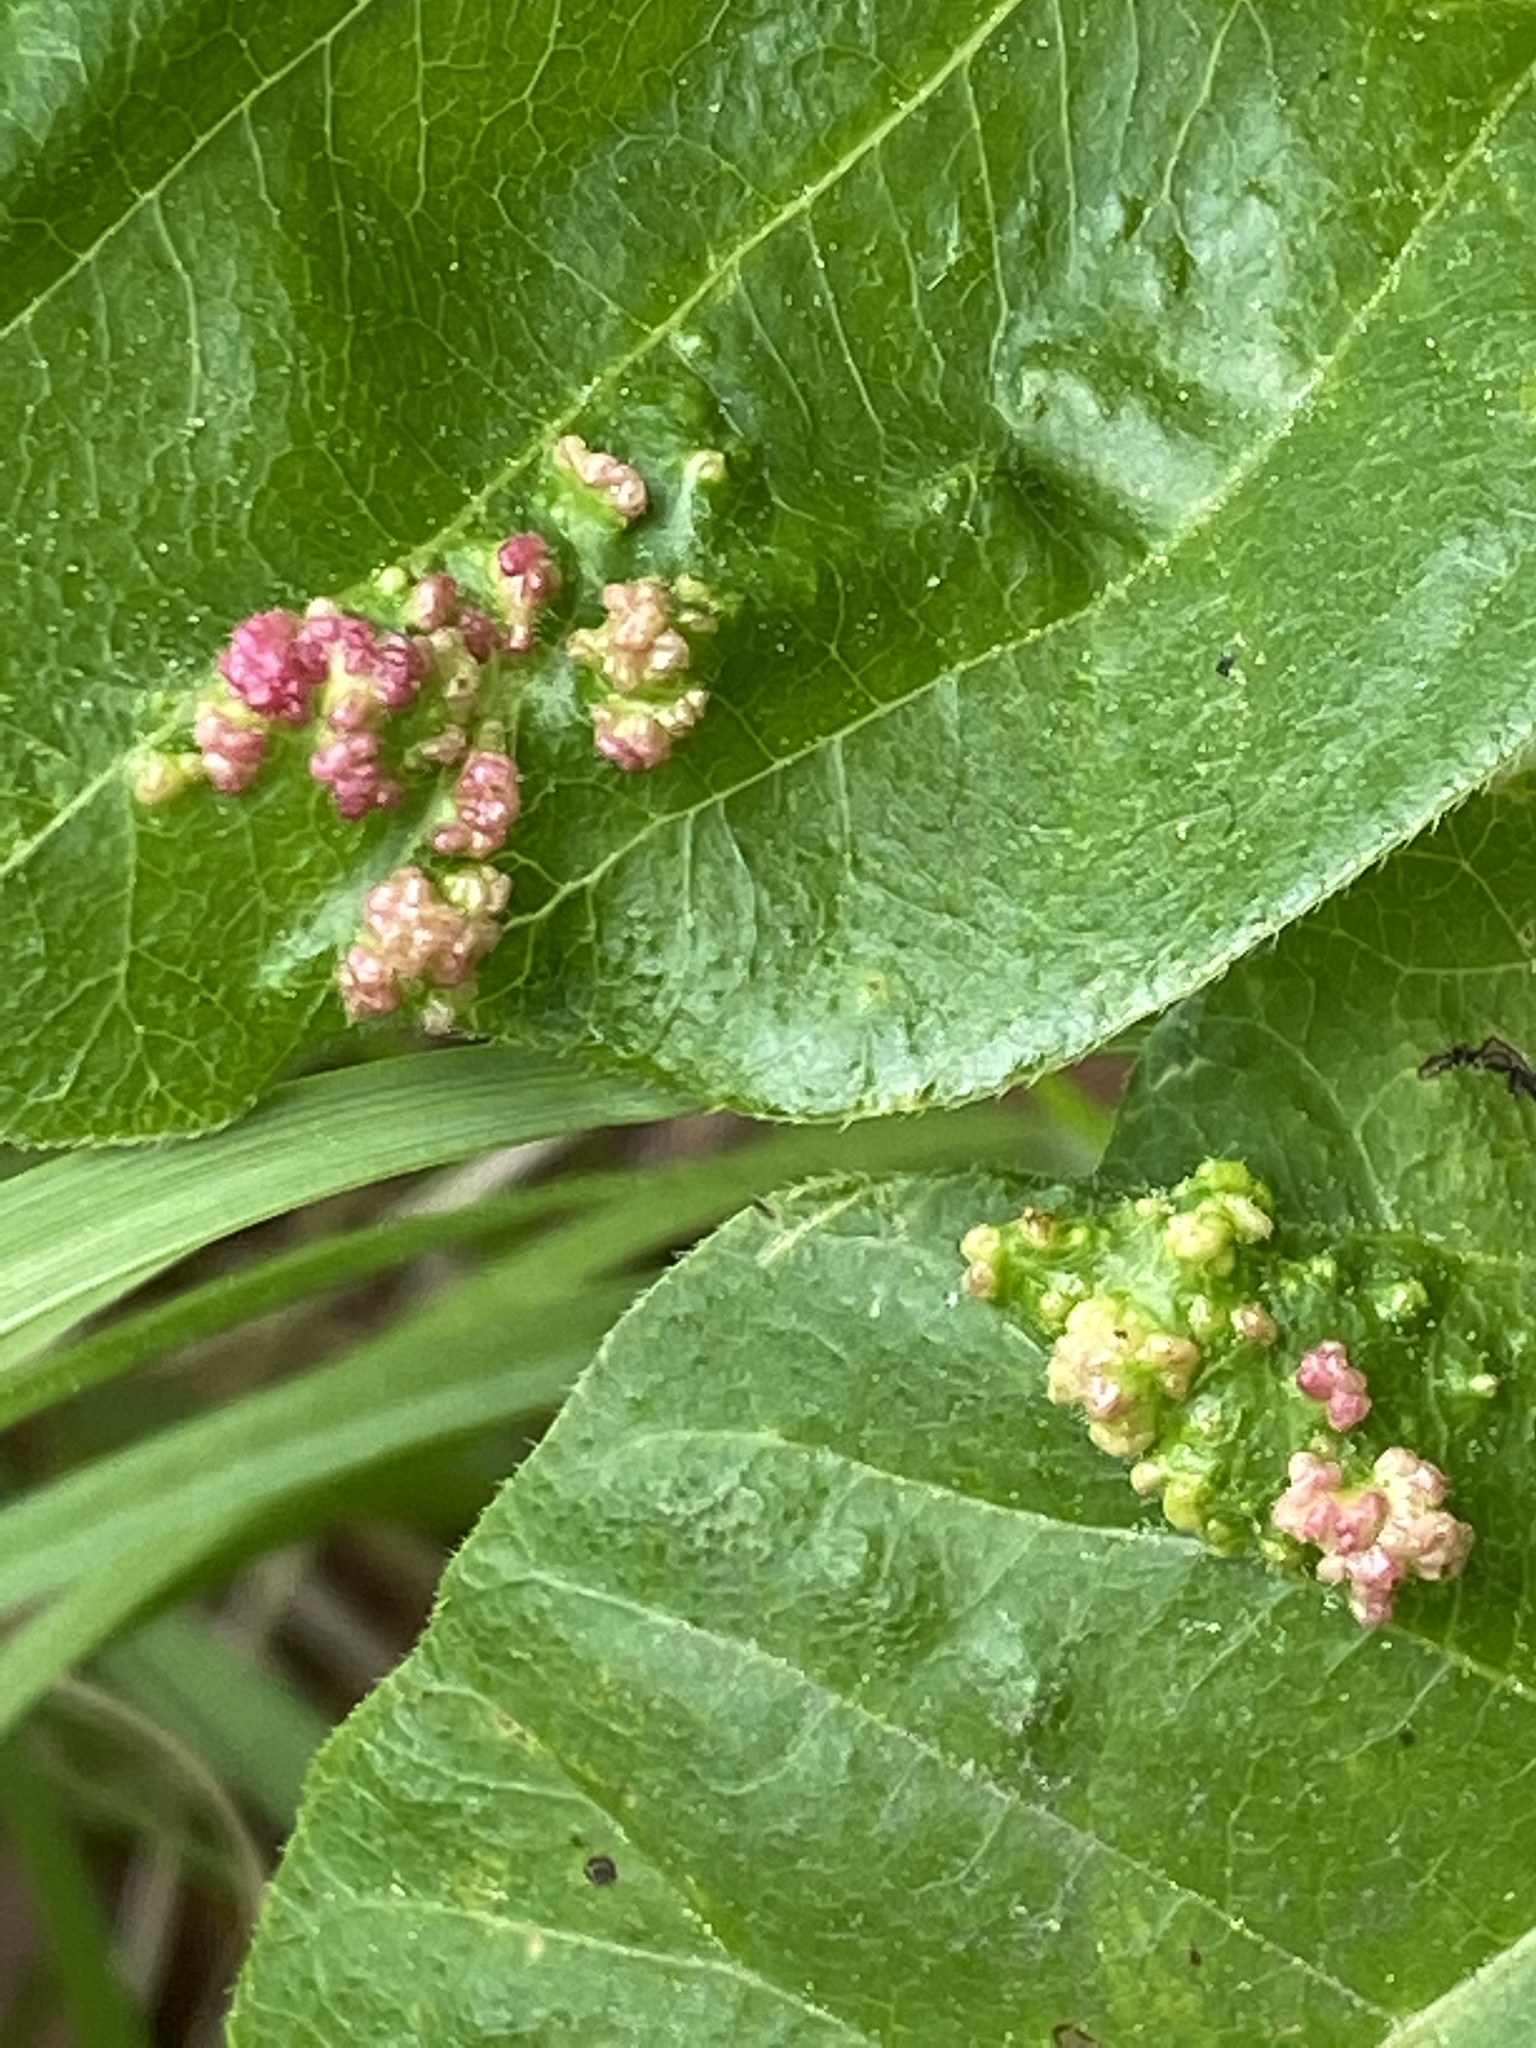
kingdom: Animalia
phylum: Arthropoda
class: Arachnida
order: Trombidiformes
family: Eriophyidae
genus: Aculops
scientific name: Aculops
